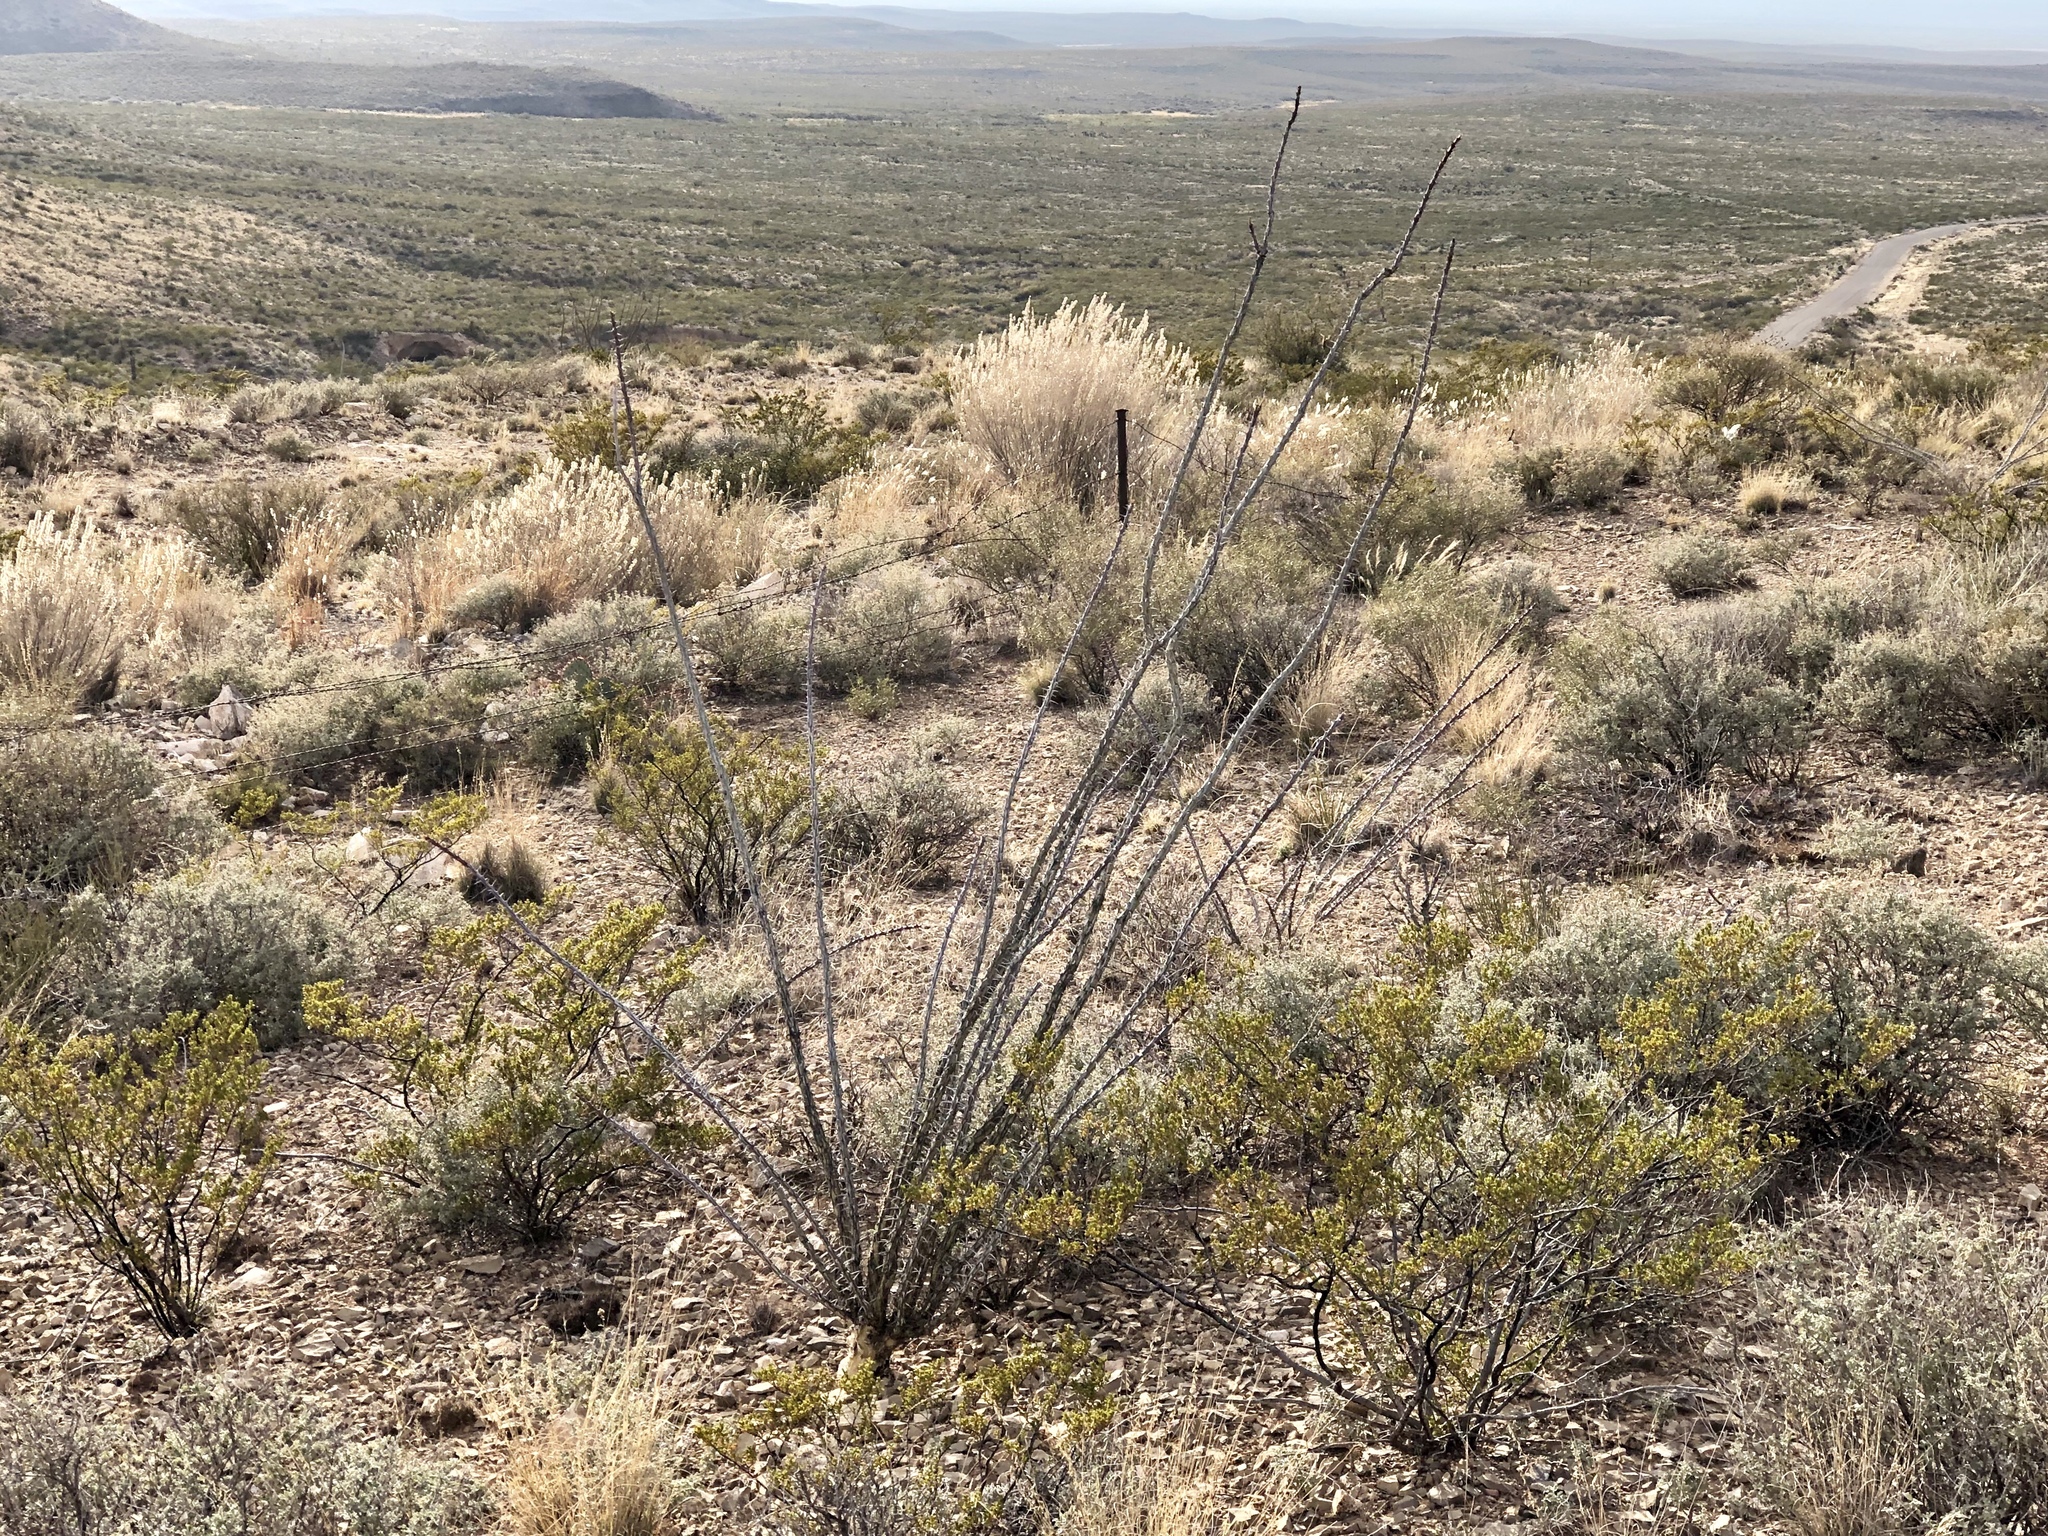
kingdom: Plantae
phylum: Tracheophyta
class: Magnoliopsida
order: Ericales
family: Fouquieriaceae
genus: Fouquieria
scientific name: Fouquieria splendens
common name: Vine-cactus
